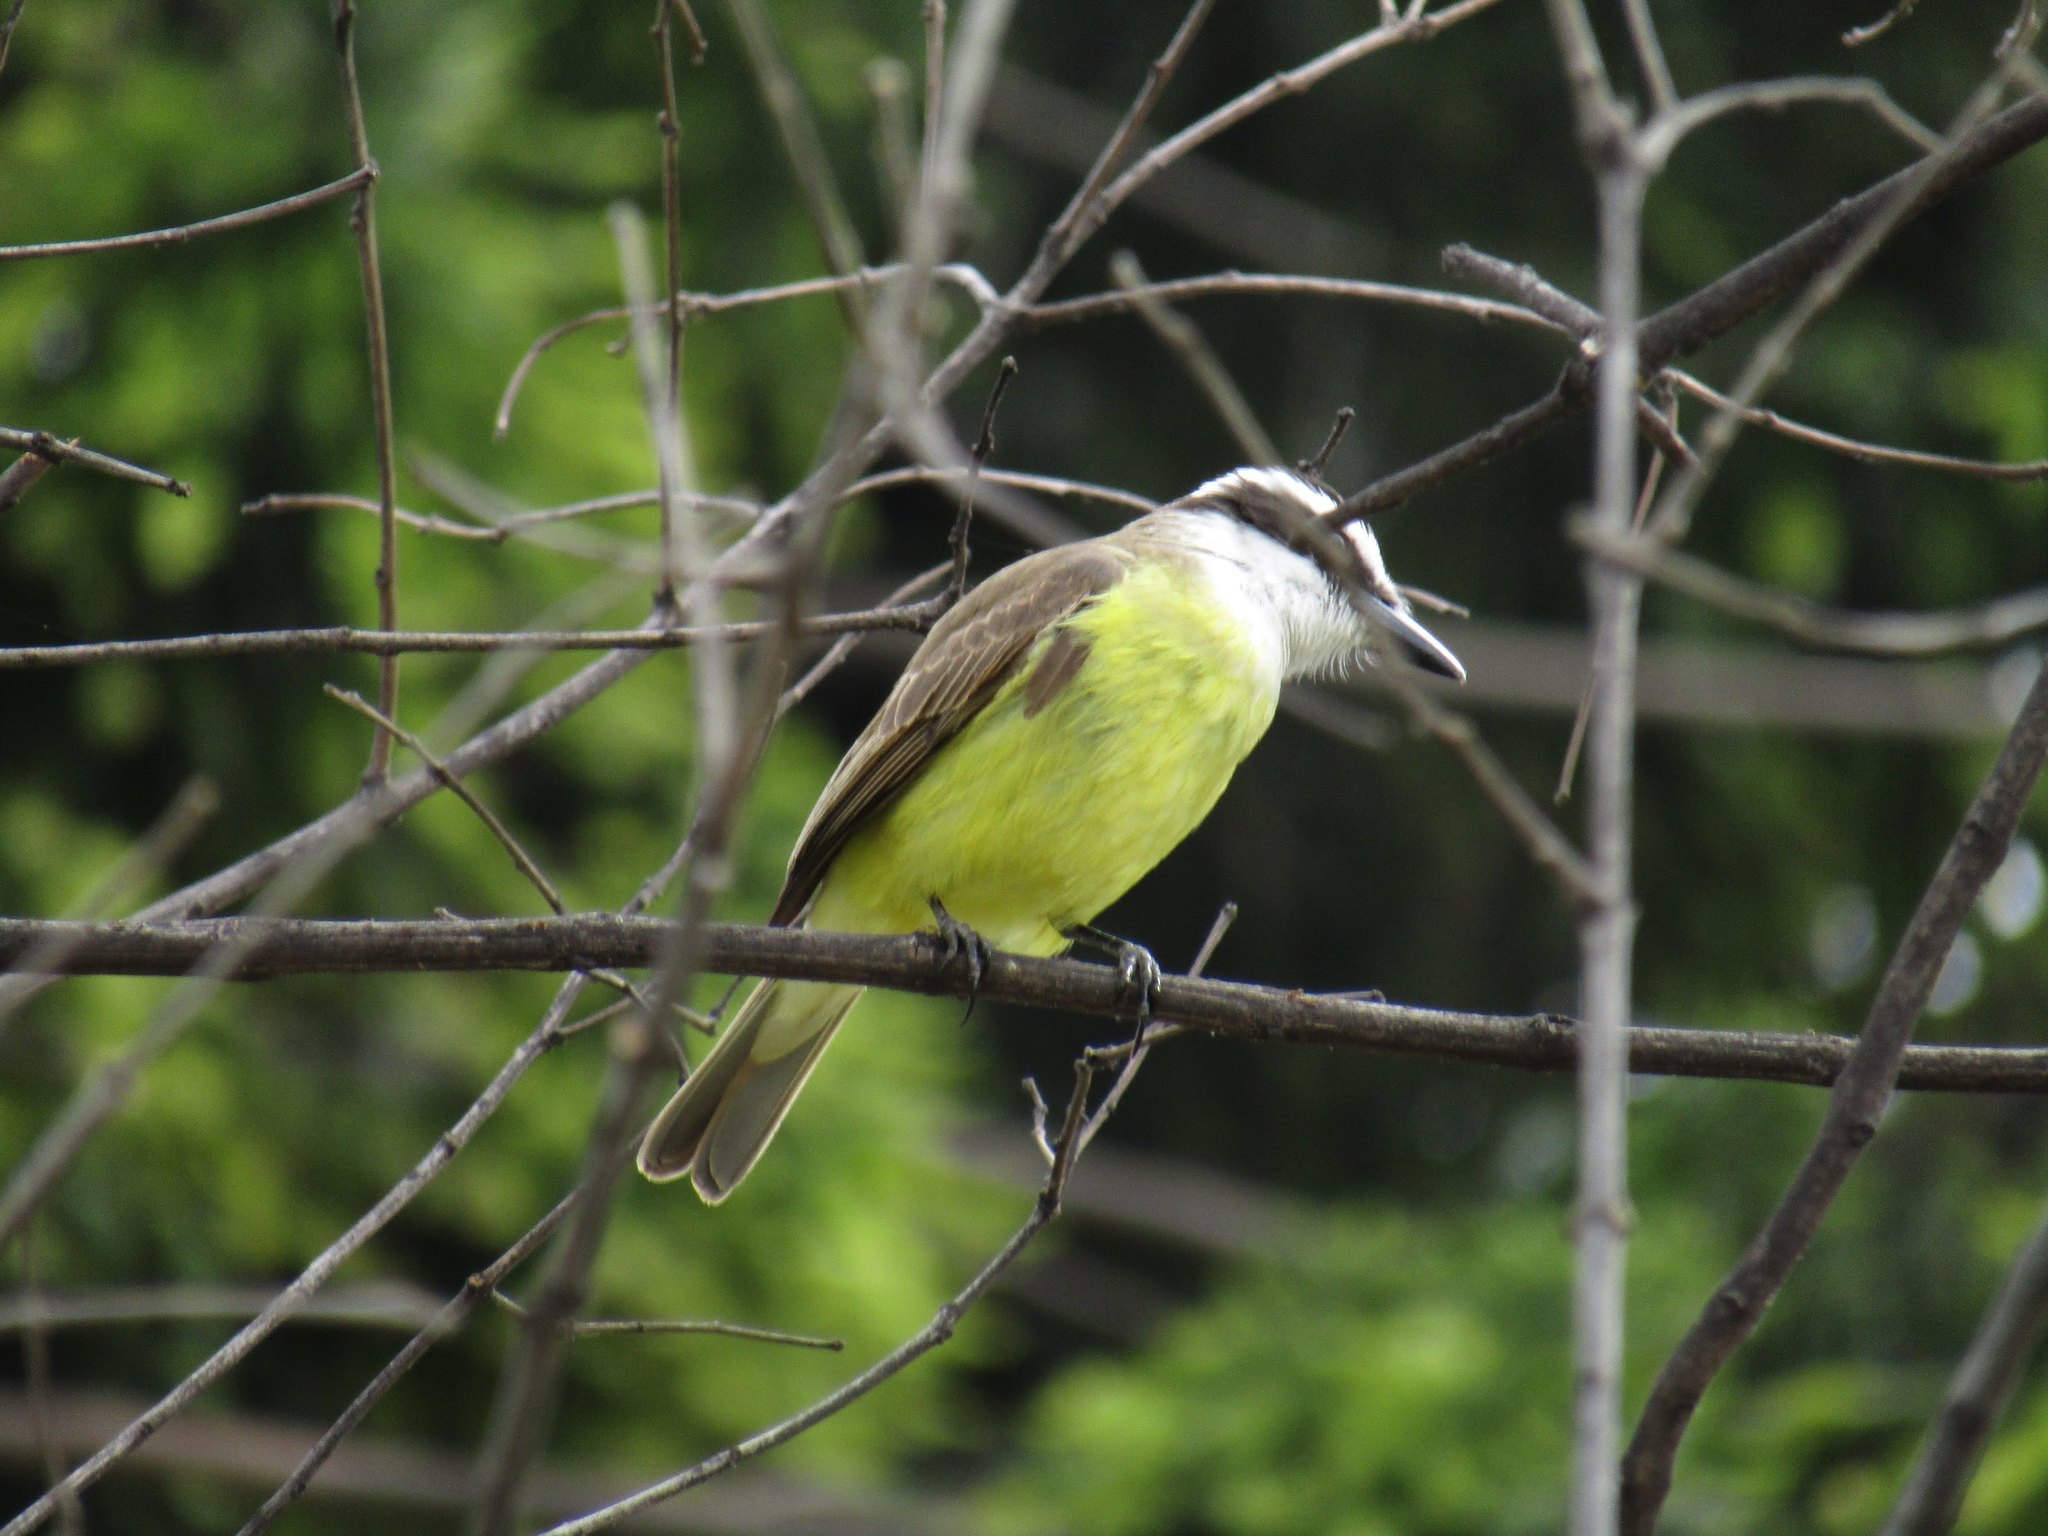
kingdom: Animalia
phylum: Chordata
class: Aves
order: Passeriformes
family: Tyrannidae
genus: Pitangus
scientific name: Pitangus sulphuratus
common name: Great kiskadee
